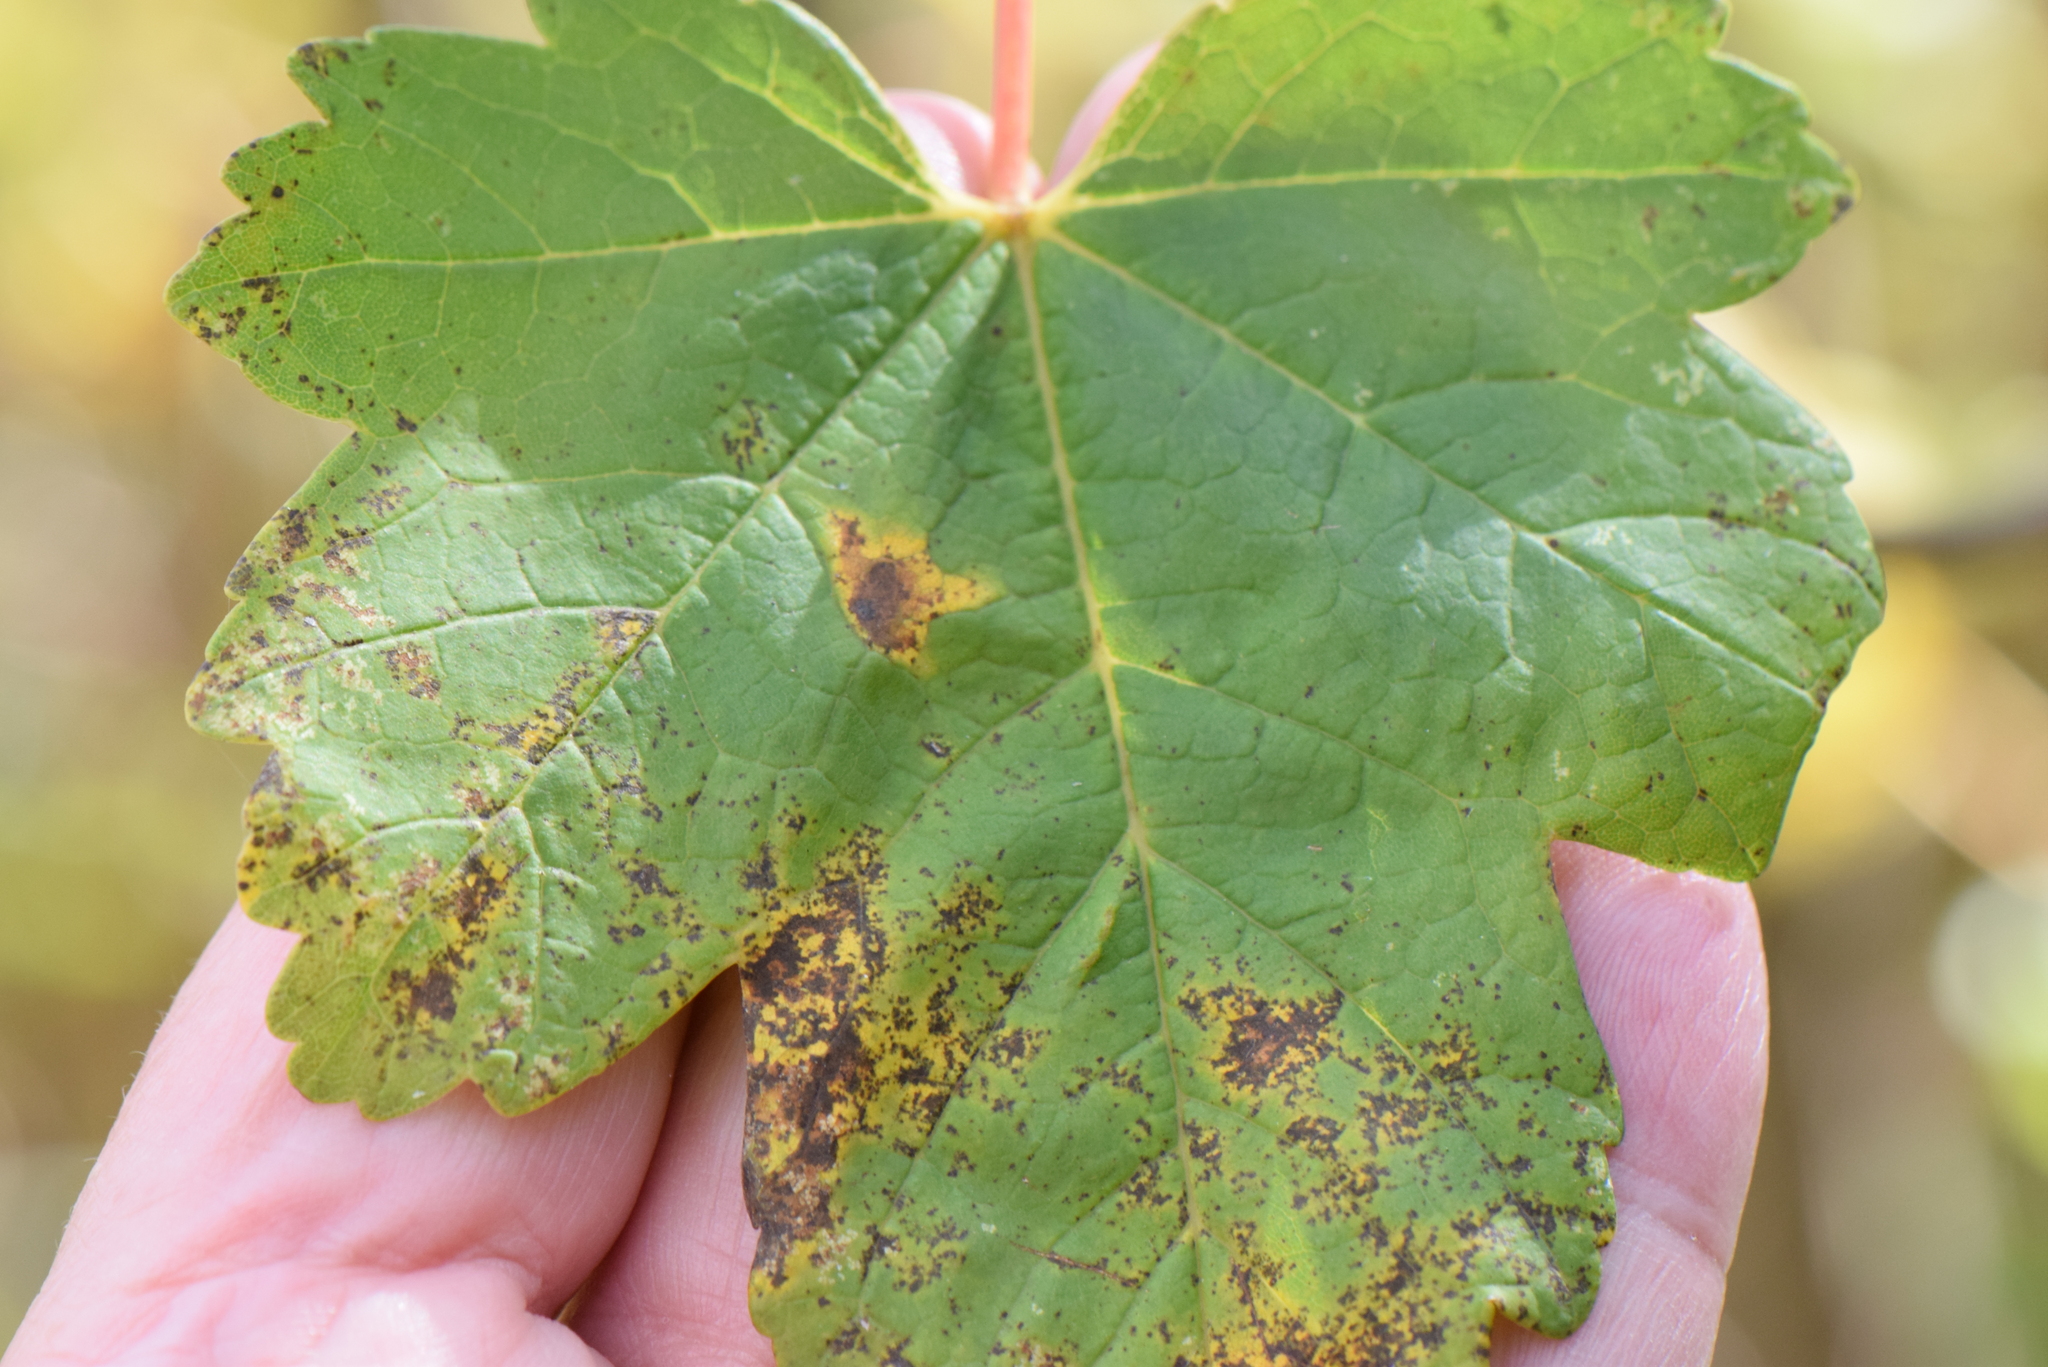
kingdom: Plantae
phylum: Tracheophyta
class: Magnoliopsida
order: Sapindales
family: Sapindaceae
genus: Acer
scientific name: Acer pseudoplatanus
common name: Sycamore
